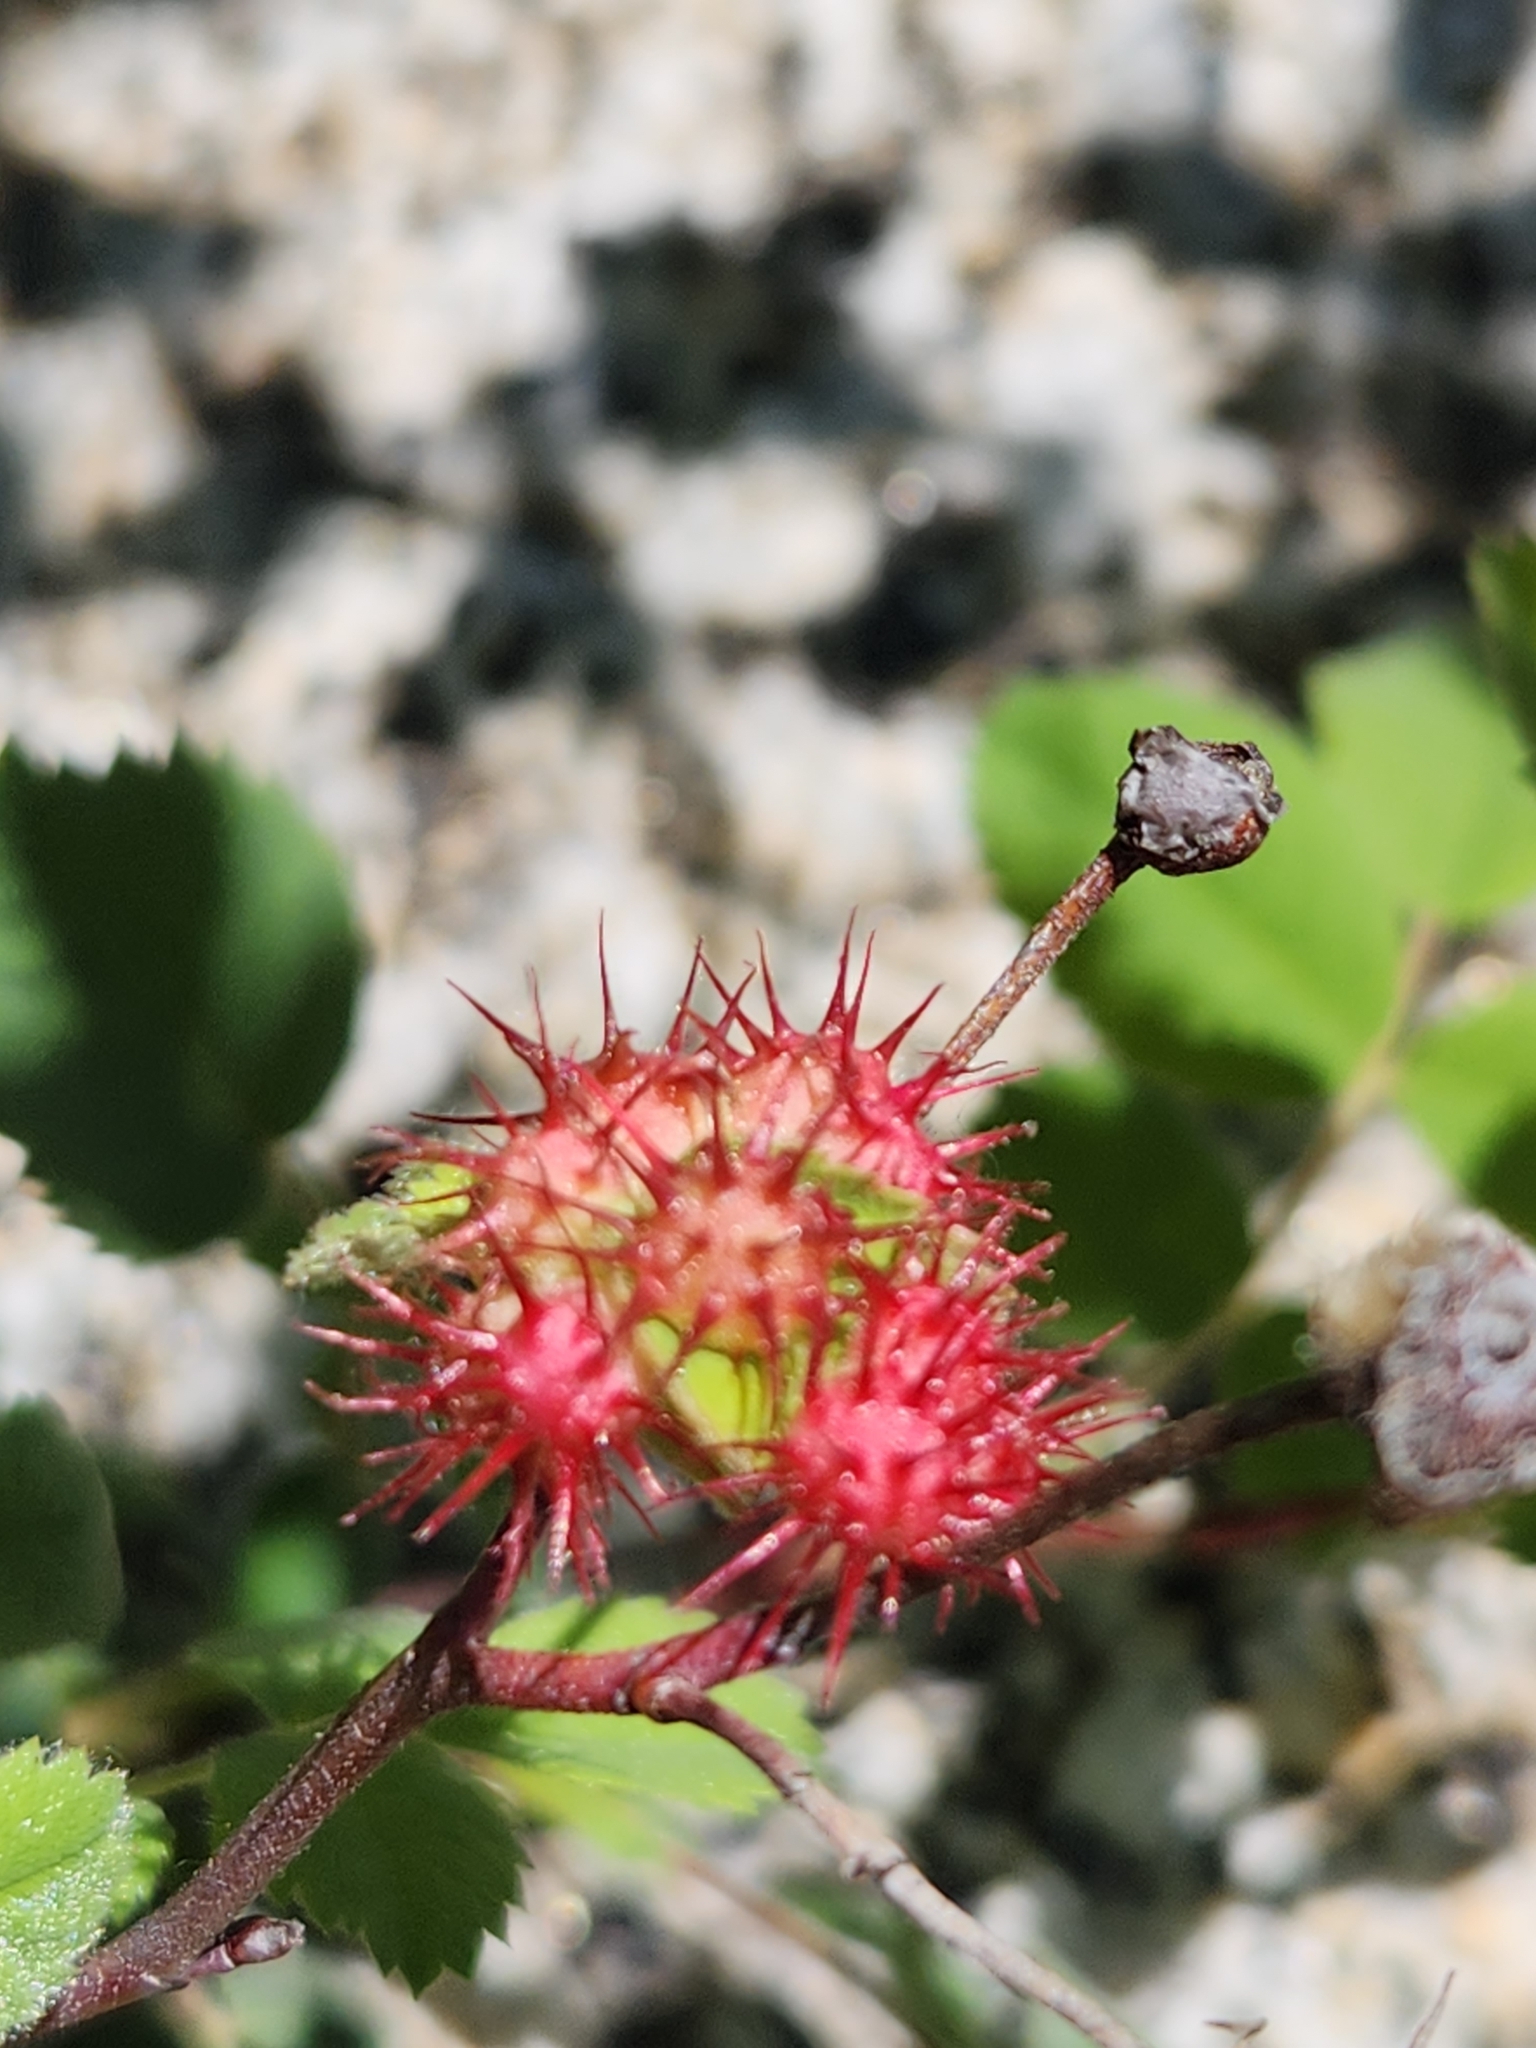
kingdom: Animalia
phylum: Arthropoda
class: Insecta
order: Hymenoptera
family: Cynipidae
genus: Diplolepis
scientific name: Diplolepis polita
